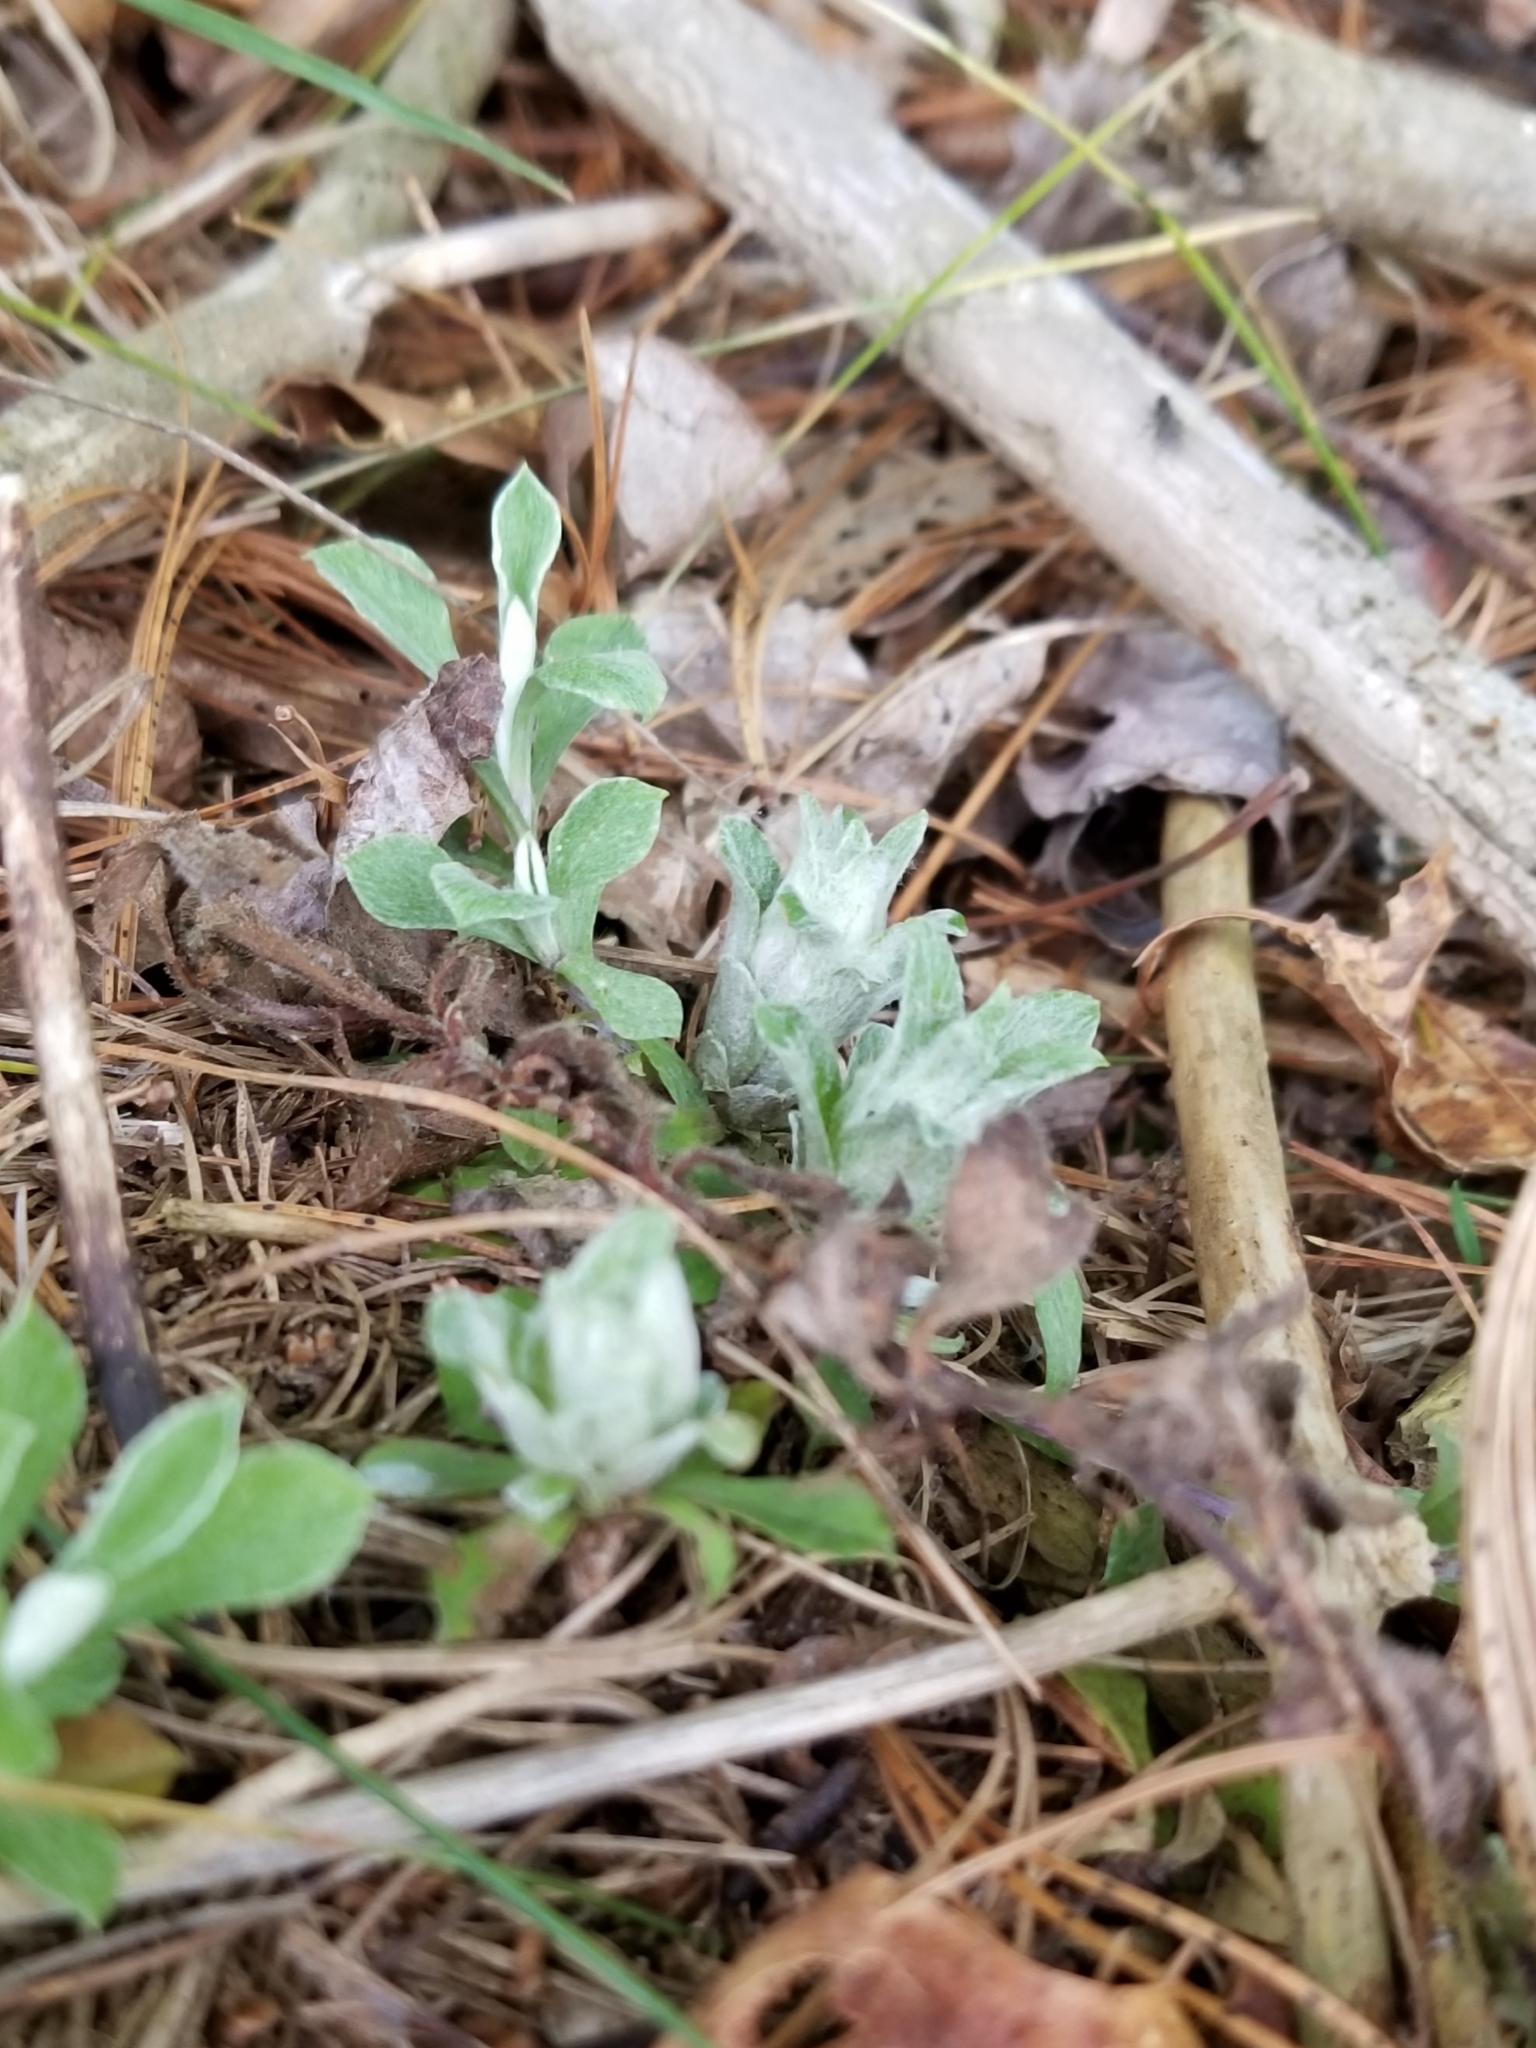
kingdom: Plantae
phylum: Tracheophyta
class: Magnoliopsida
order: Asterales
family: Asteraceae
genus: Antennaria
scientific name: Antennaria howellii
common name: Howell's pussytoes
